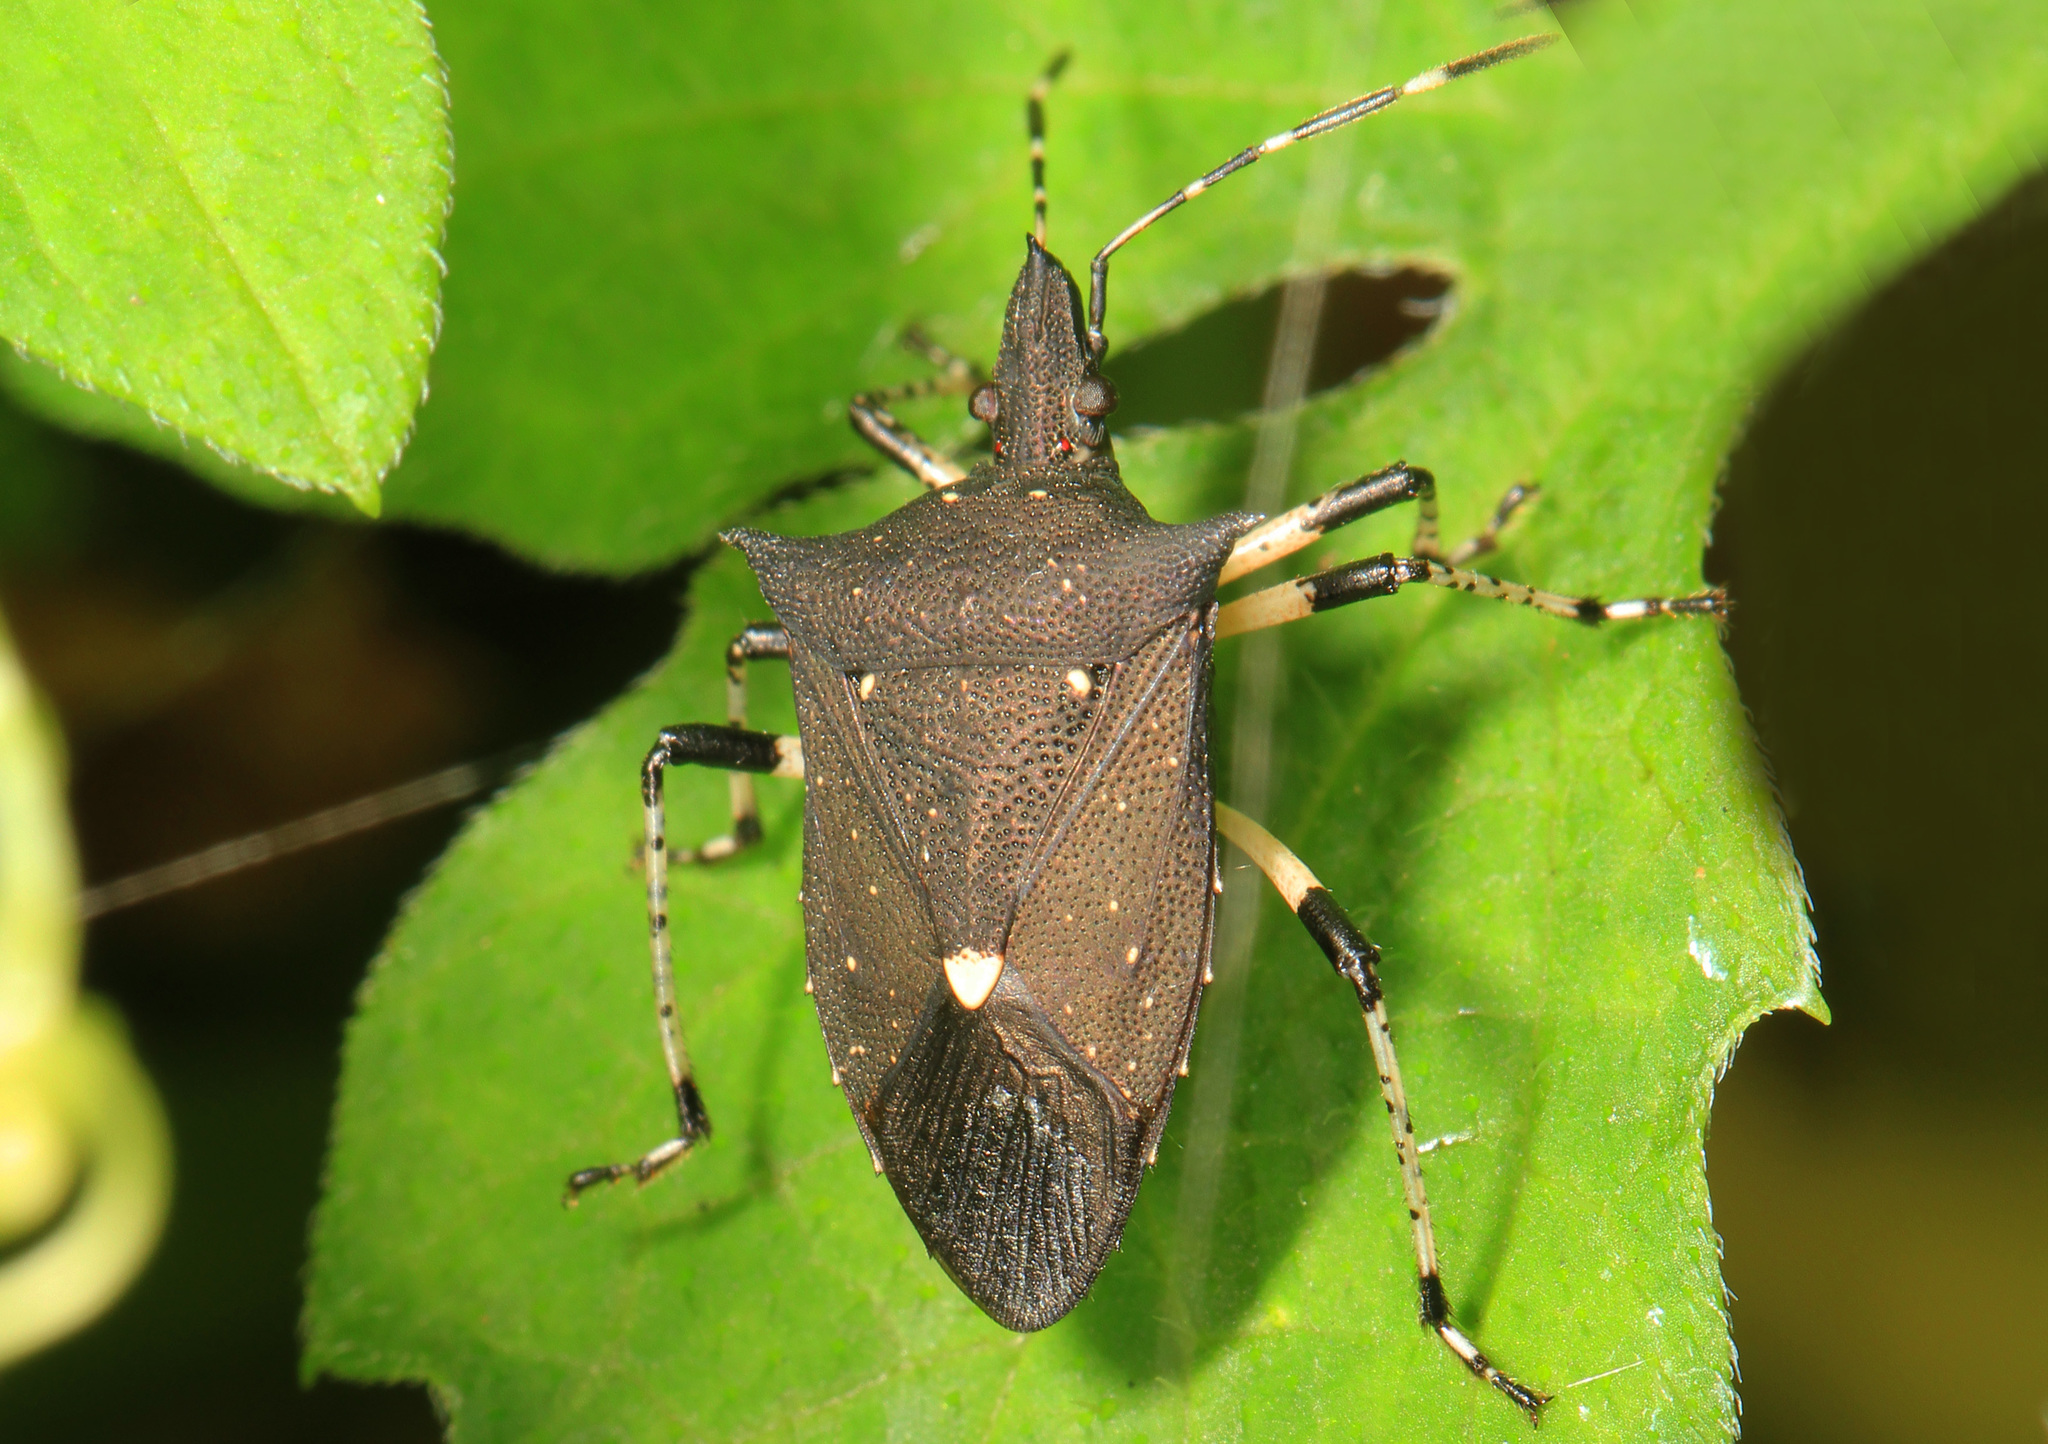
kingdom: Animalia
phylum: Arthropoda
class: Insecta
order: Hemiptera
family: Pentatomidae
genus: Proxys
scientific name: Proxys punctulatus
